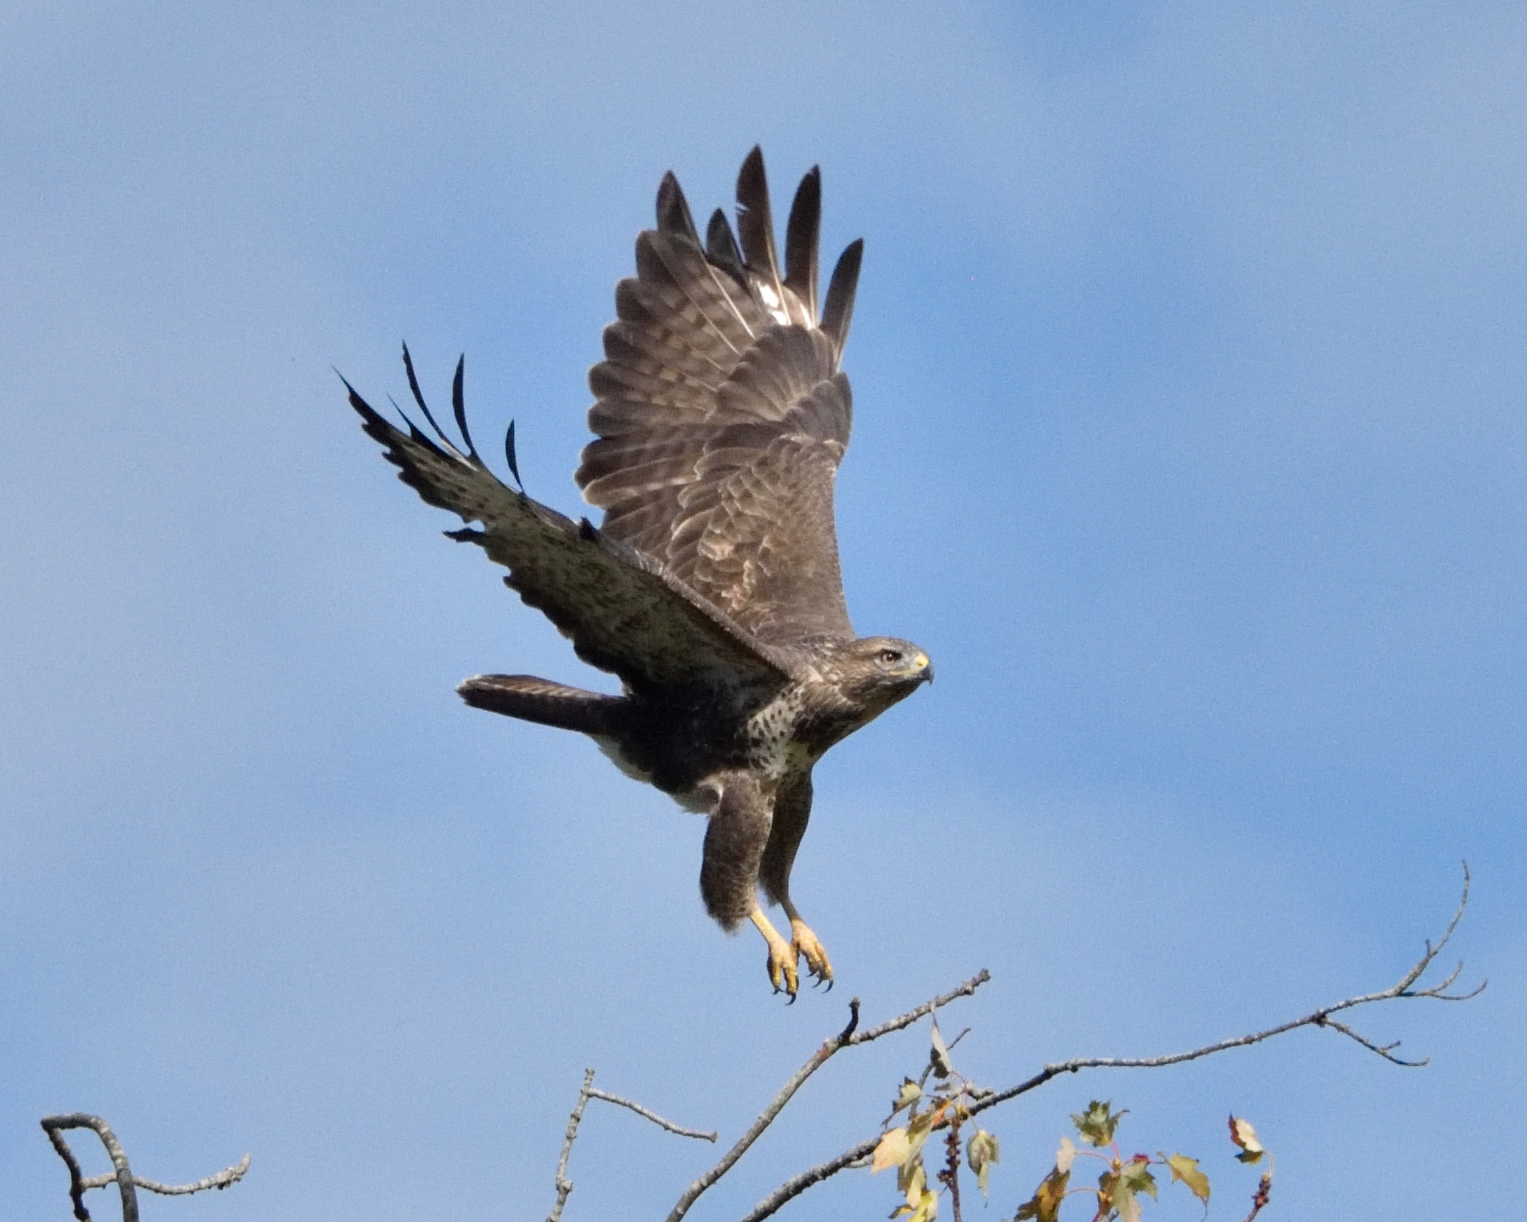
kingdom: Animalia
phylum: Chordata
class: Aves
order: Accipitriformes
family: Accipitridae
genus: Buteo
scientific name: Buteo buteo
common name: Common buzzard
